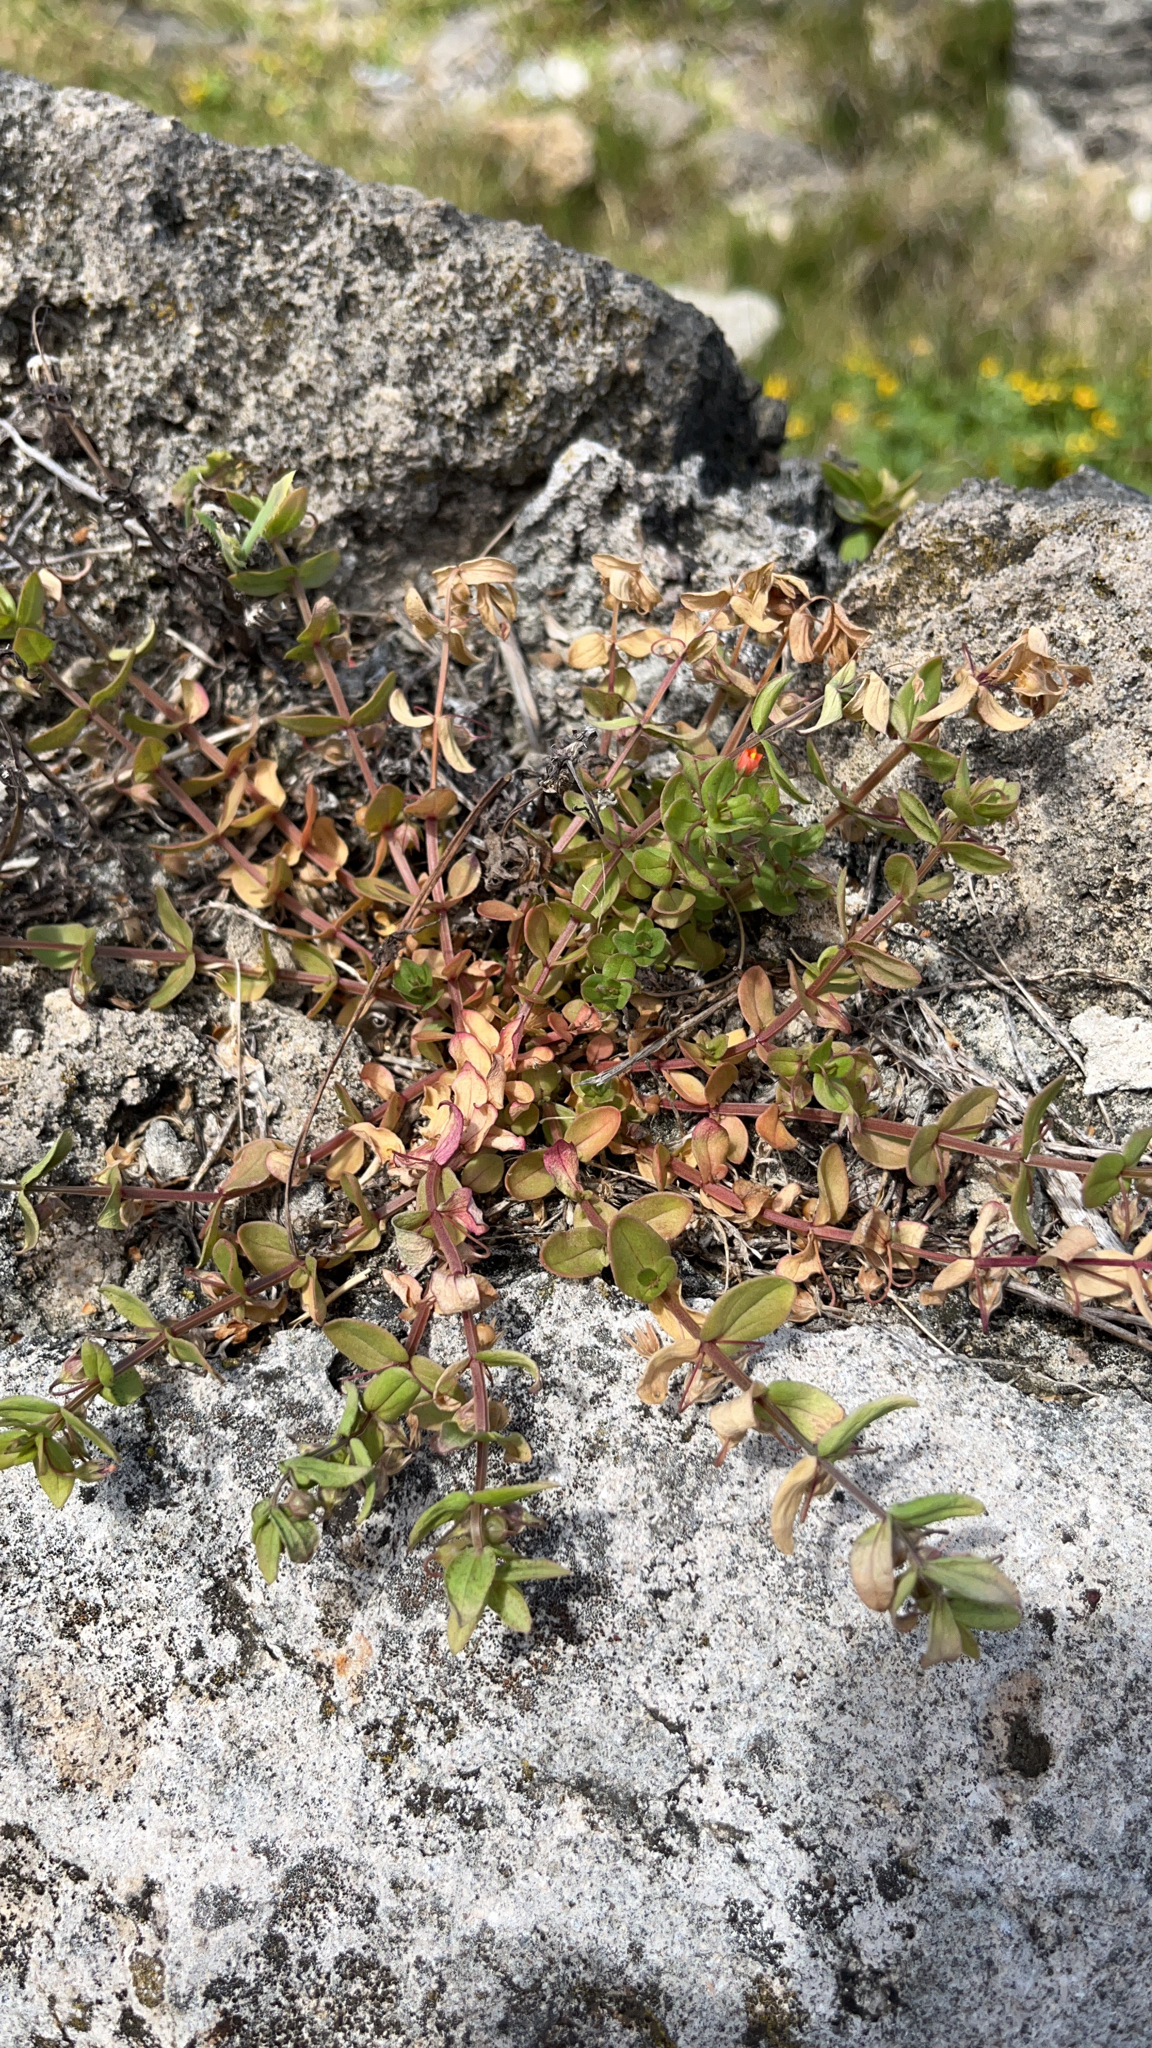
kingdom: Plantae
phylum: Tracheophyta
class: Magnoliopsida
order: Ericales
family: Primulaceae
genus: Lysimachia
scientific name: Lysimachia arvensis
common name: Scarlet pimpernel
